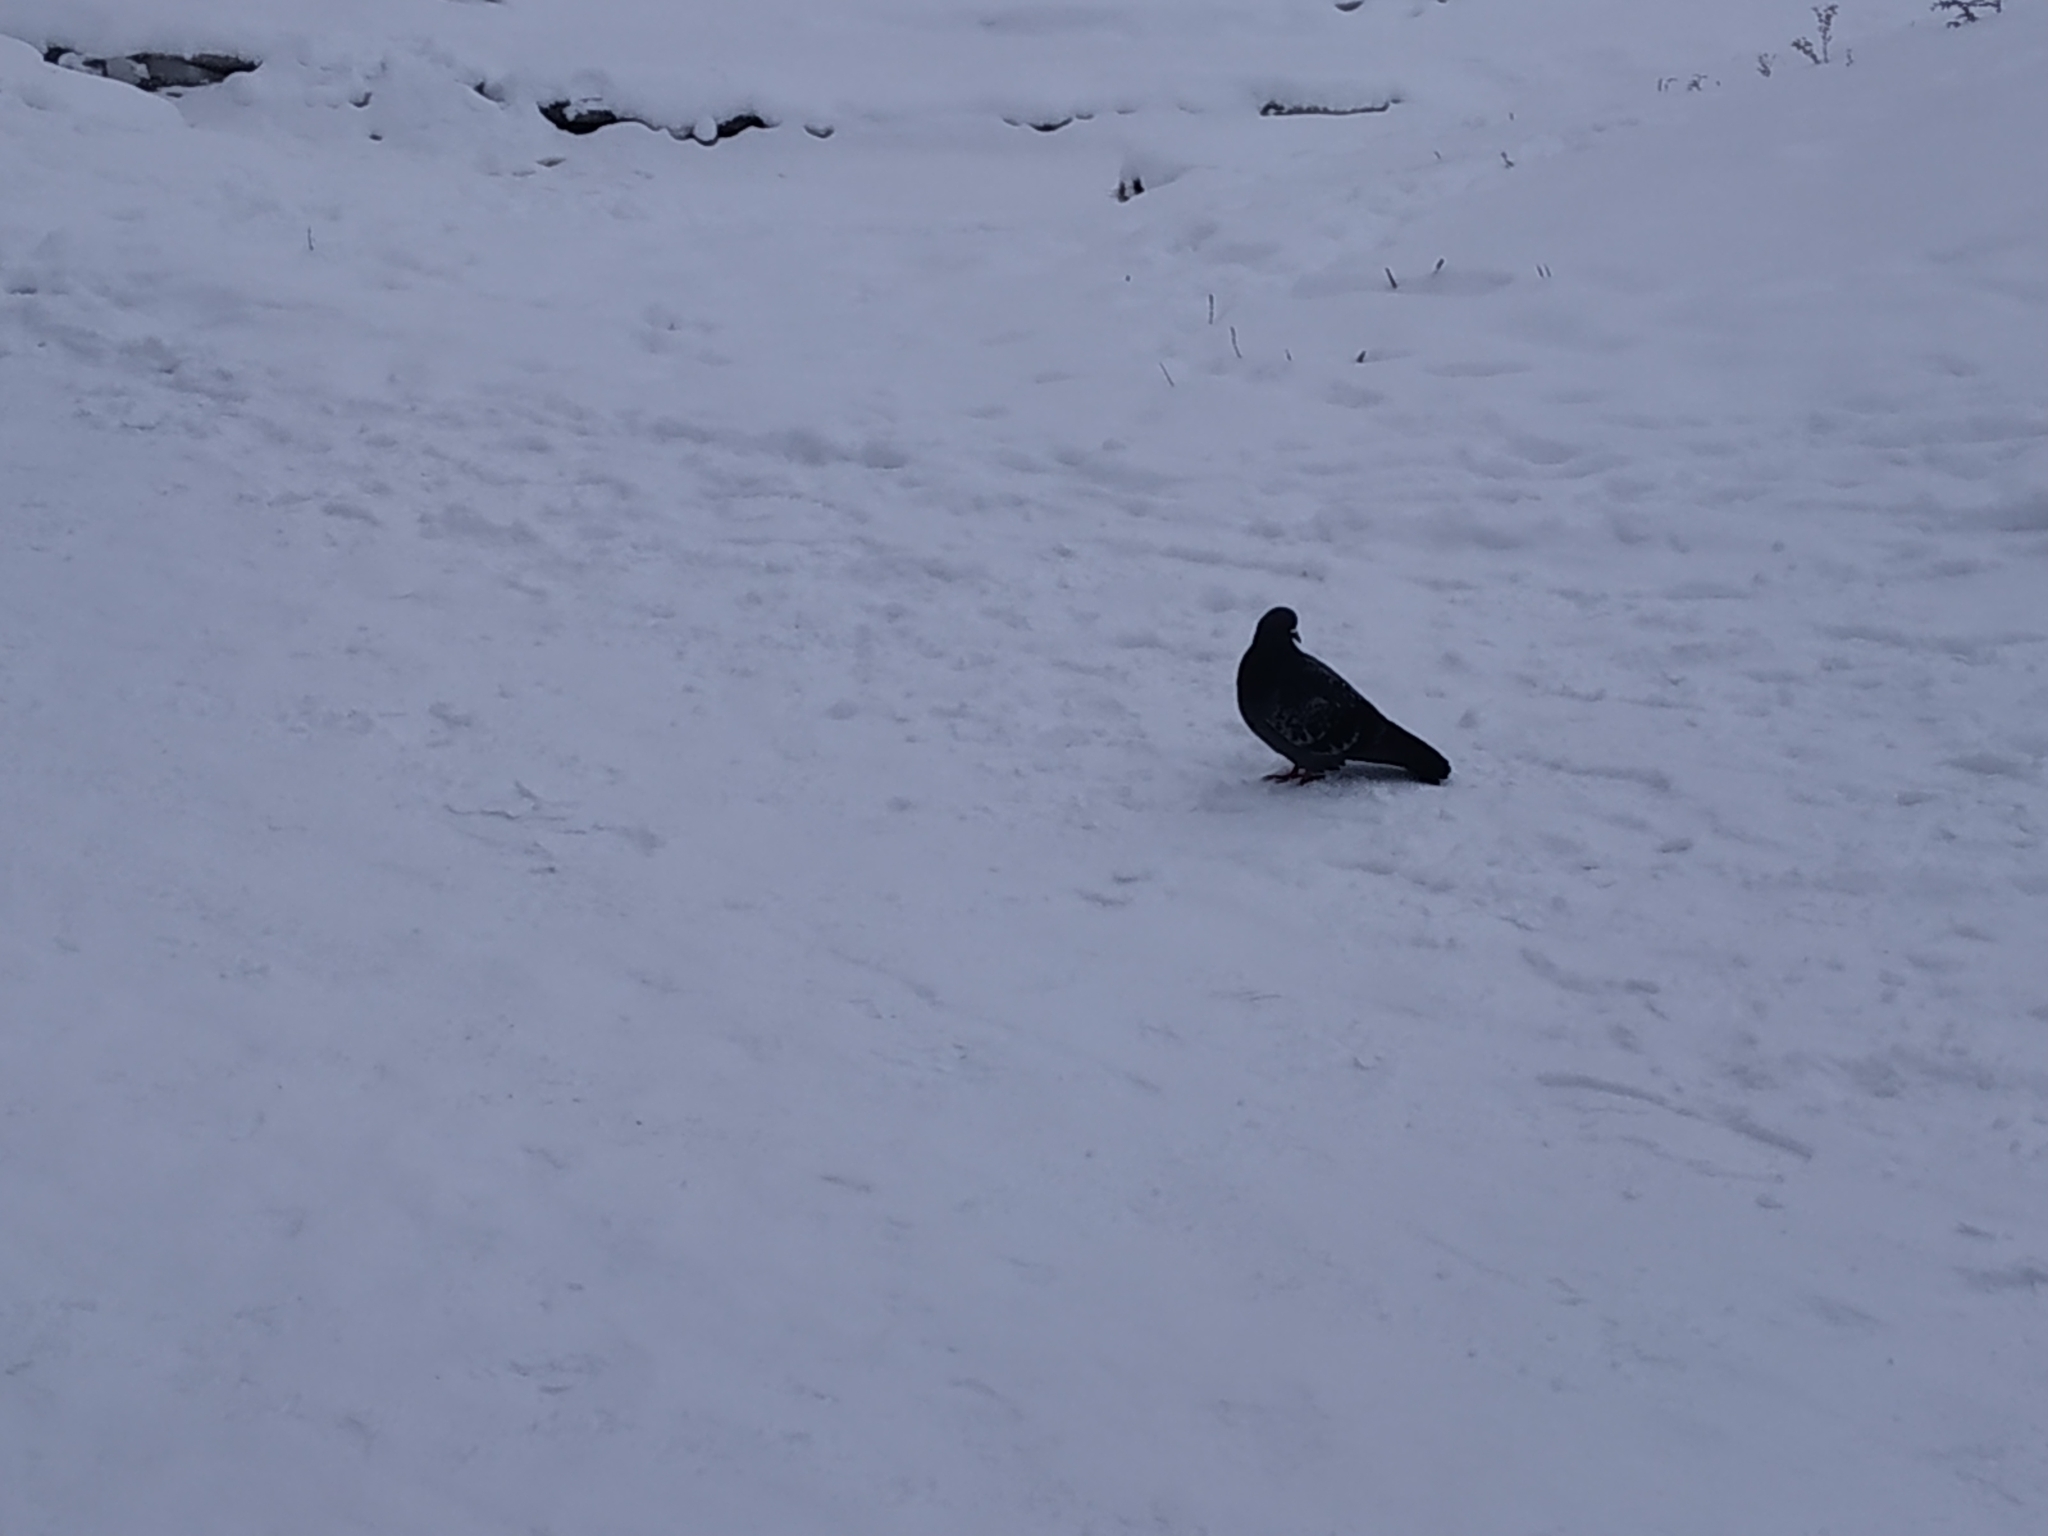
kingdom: Animalia
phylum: Chordata
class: Aves
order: Columbiformes
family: Columbidae
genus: Columba
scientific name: Columba livia
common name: Rock pigeon
